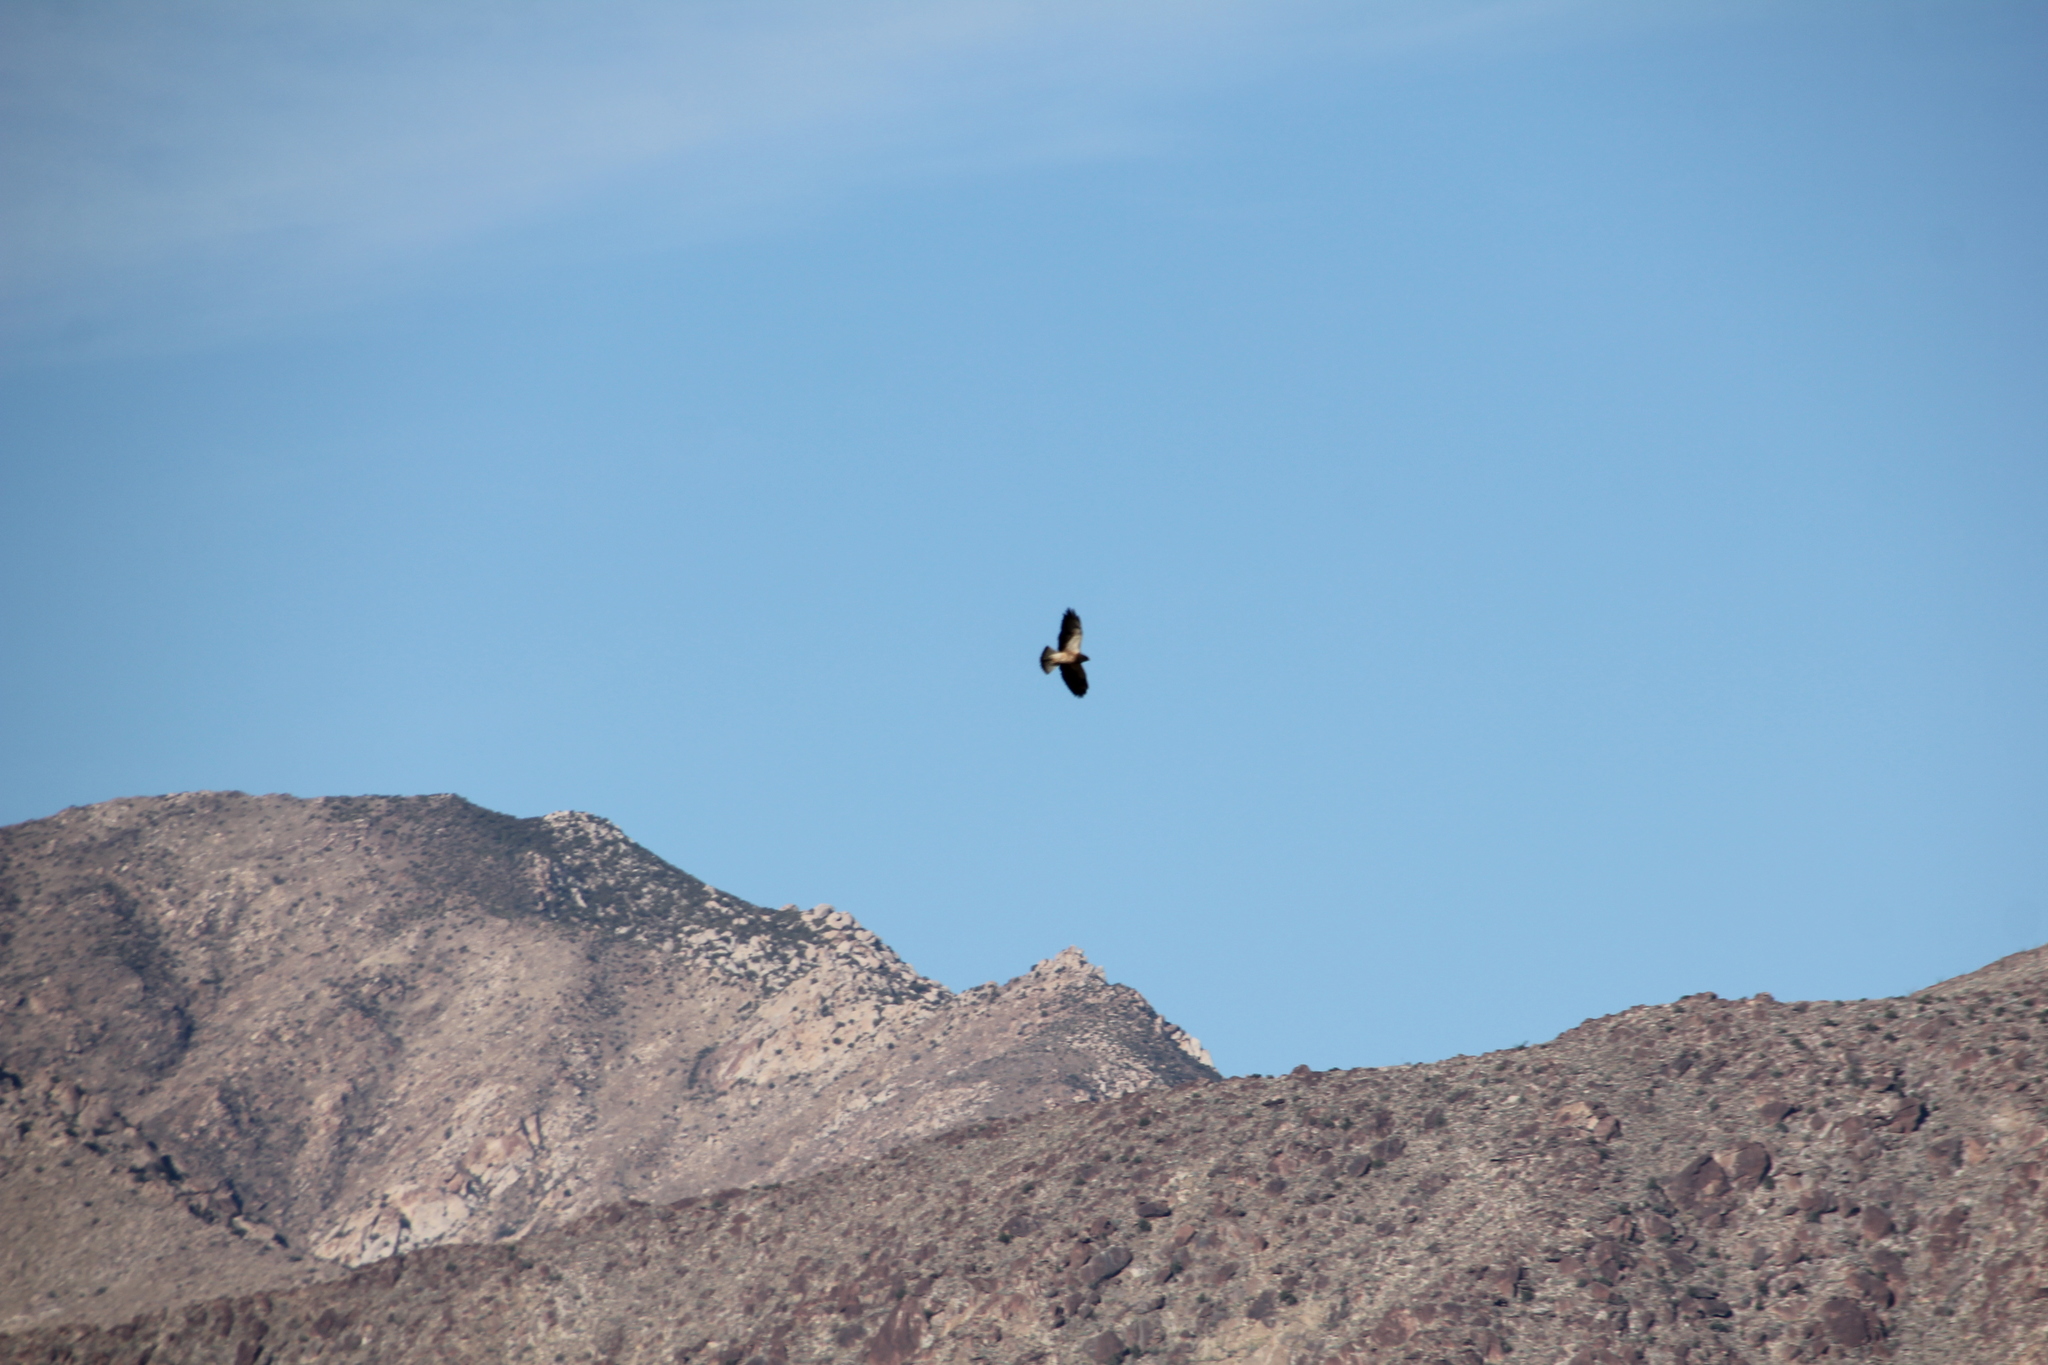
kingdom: Animalia
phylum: Chordata
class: Aves
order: Accipitriformes
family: Accipitridae
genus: Buteo
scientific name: Buteo swainsoni
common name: Swainson's hawk
